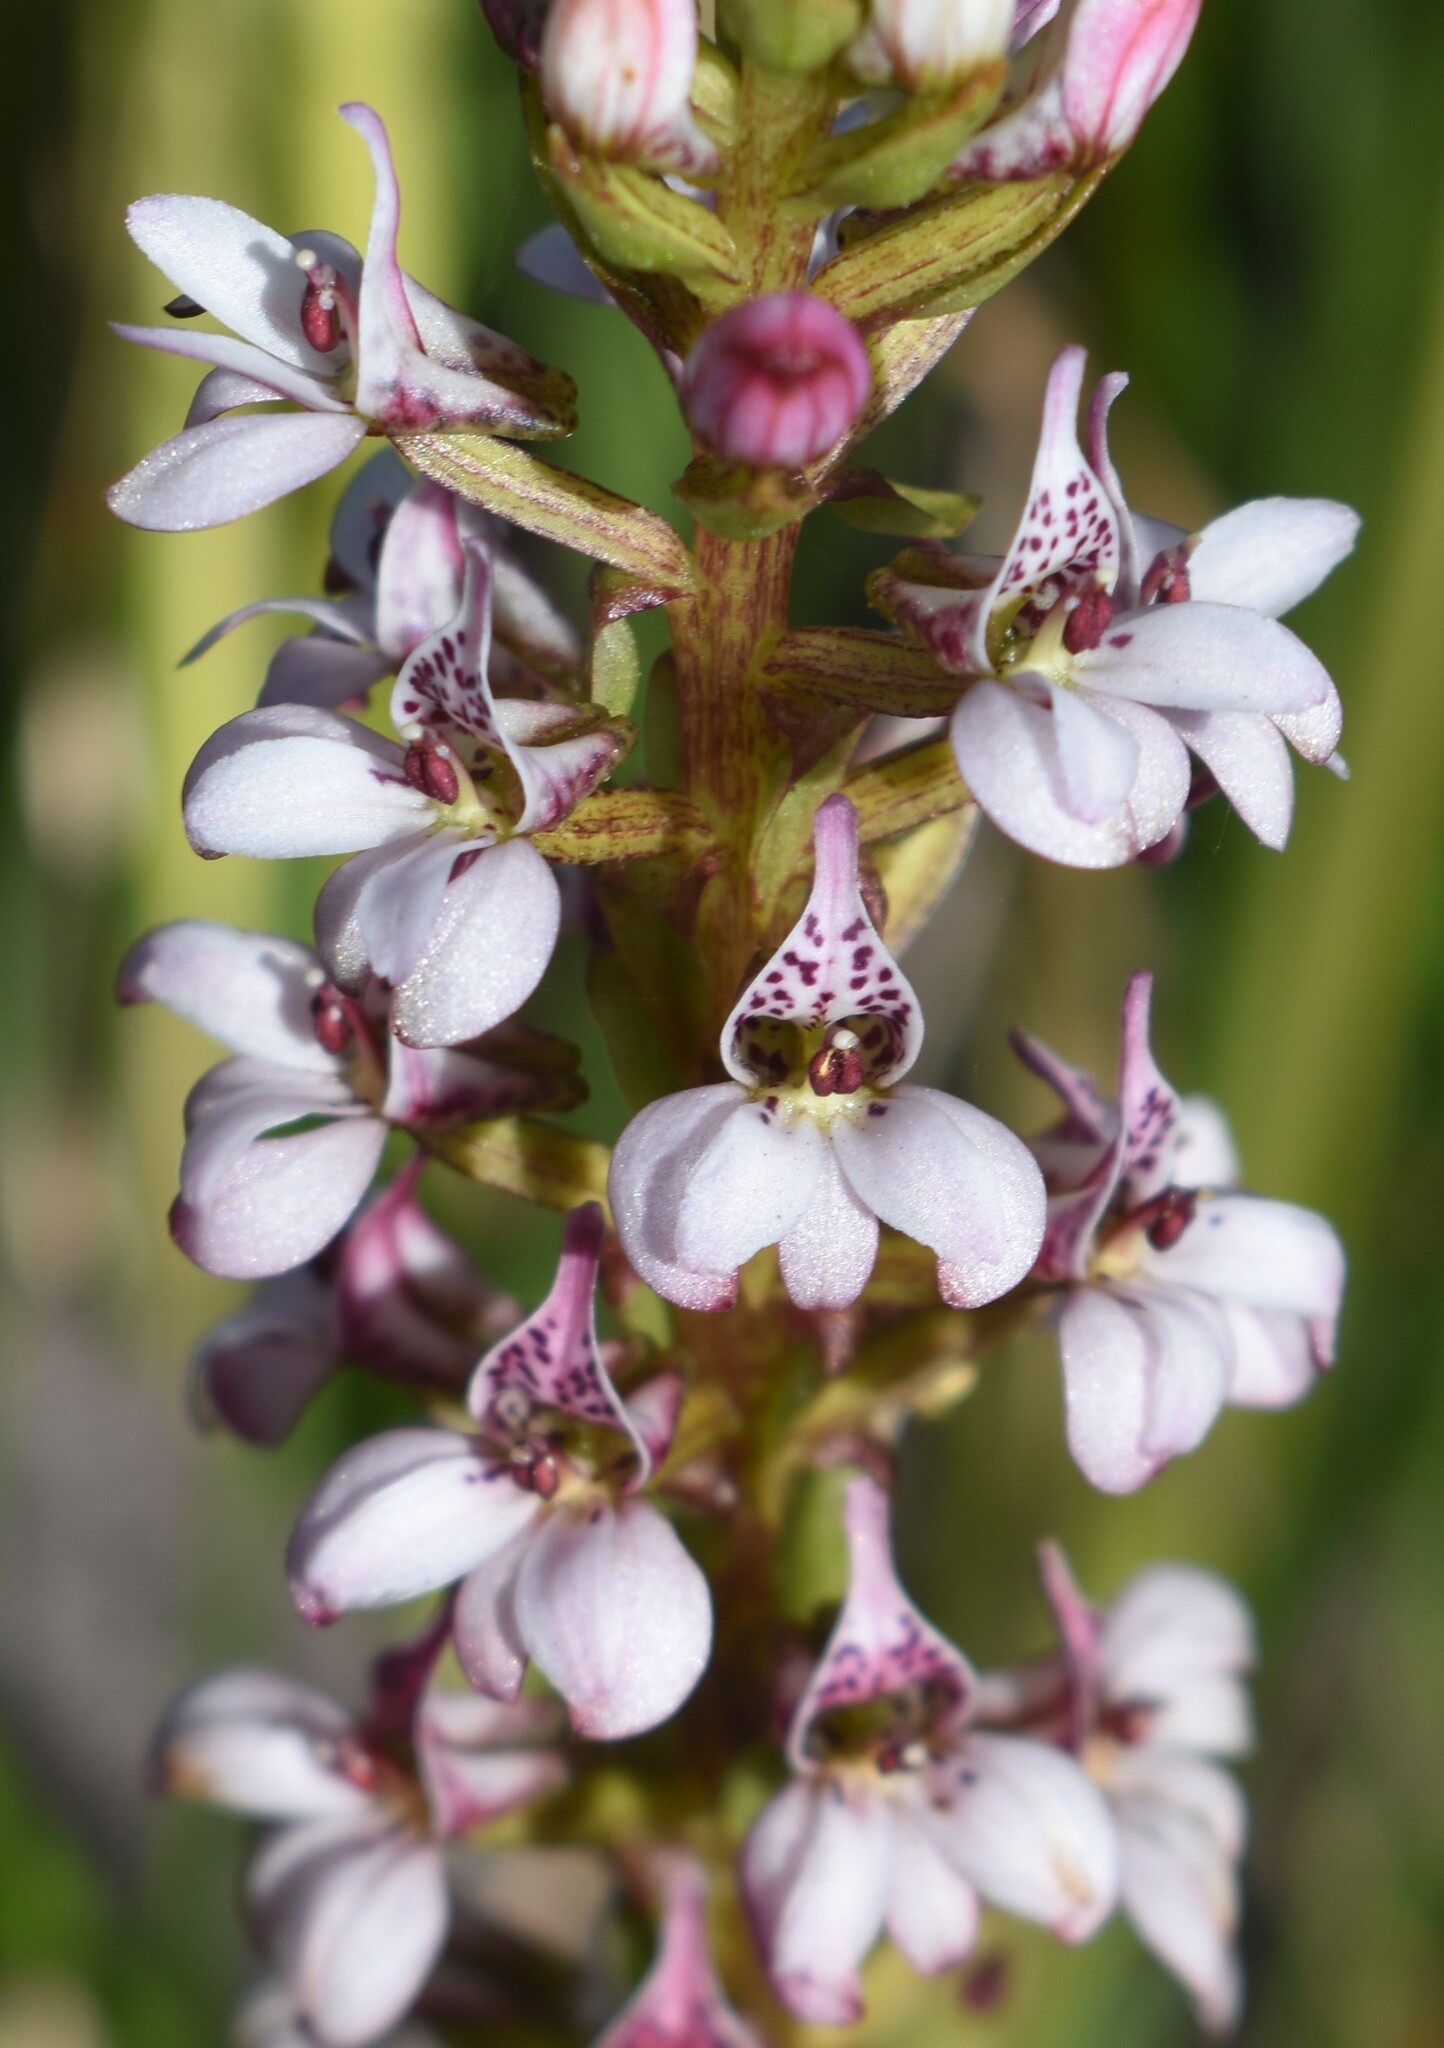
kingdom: Plantae
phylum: Tracheophyta
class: Liliopsida
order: Asparagales
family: Orchidaceae
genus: Satyrium
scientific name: Satyrium rhynchanthum
